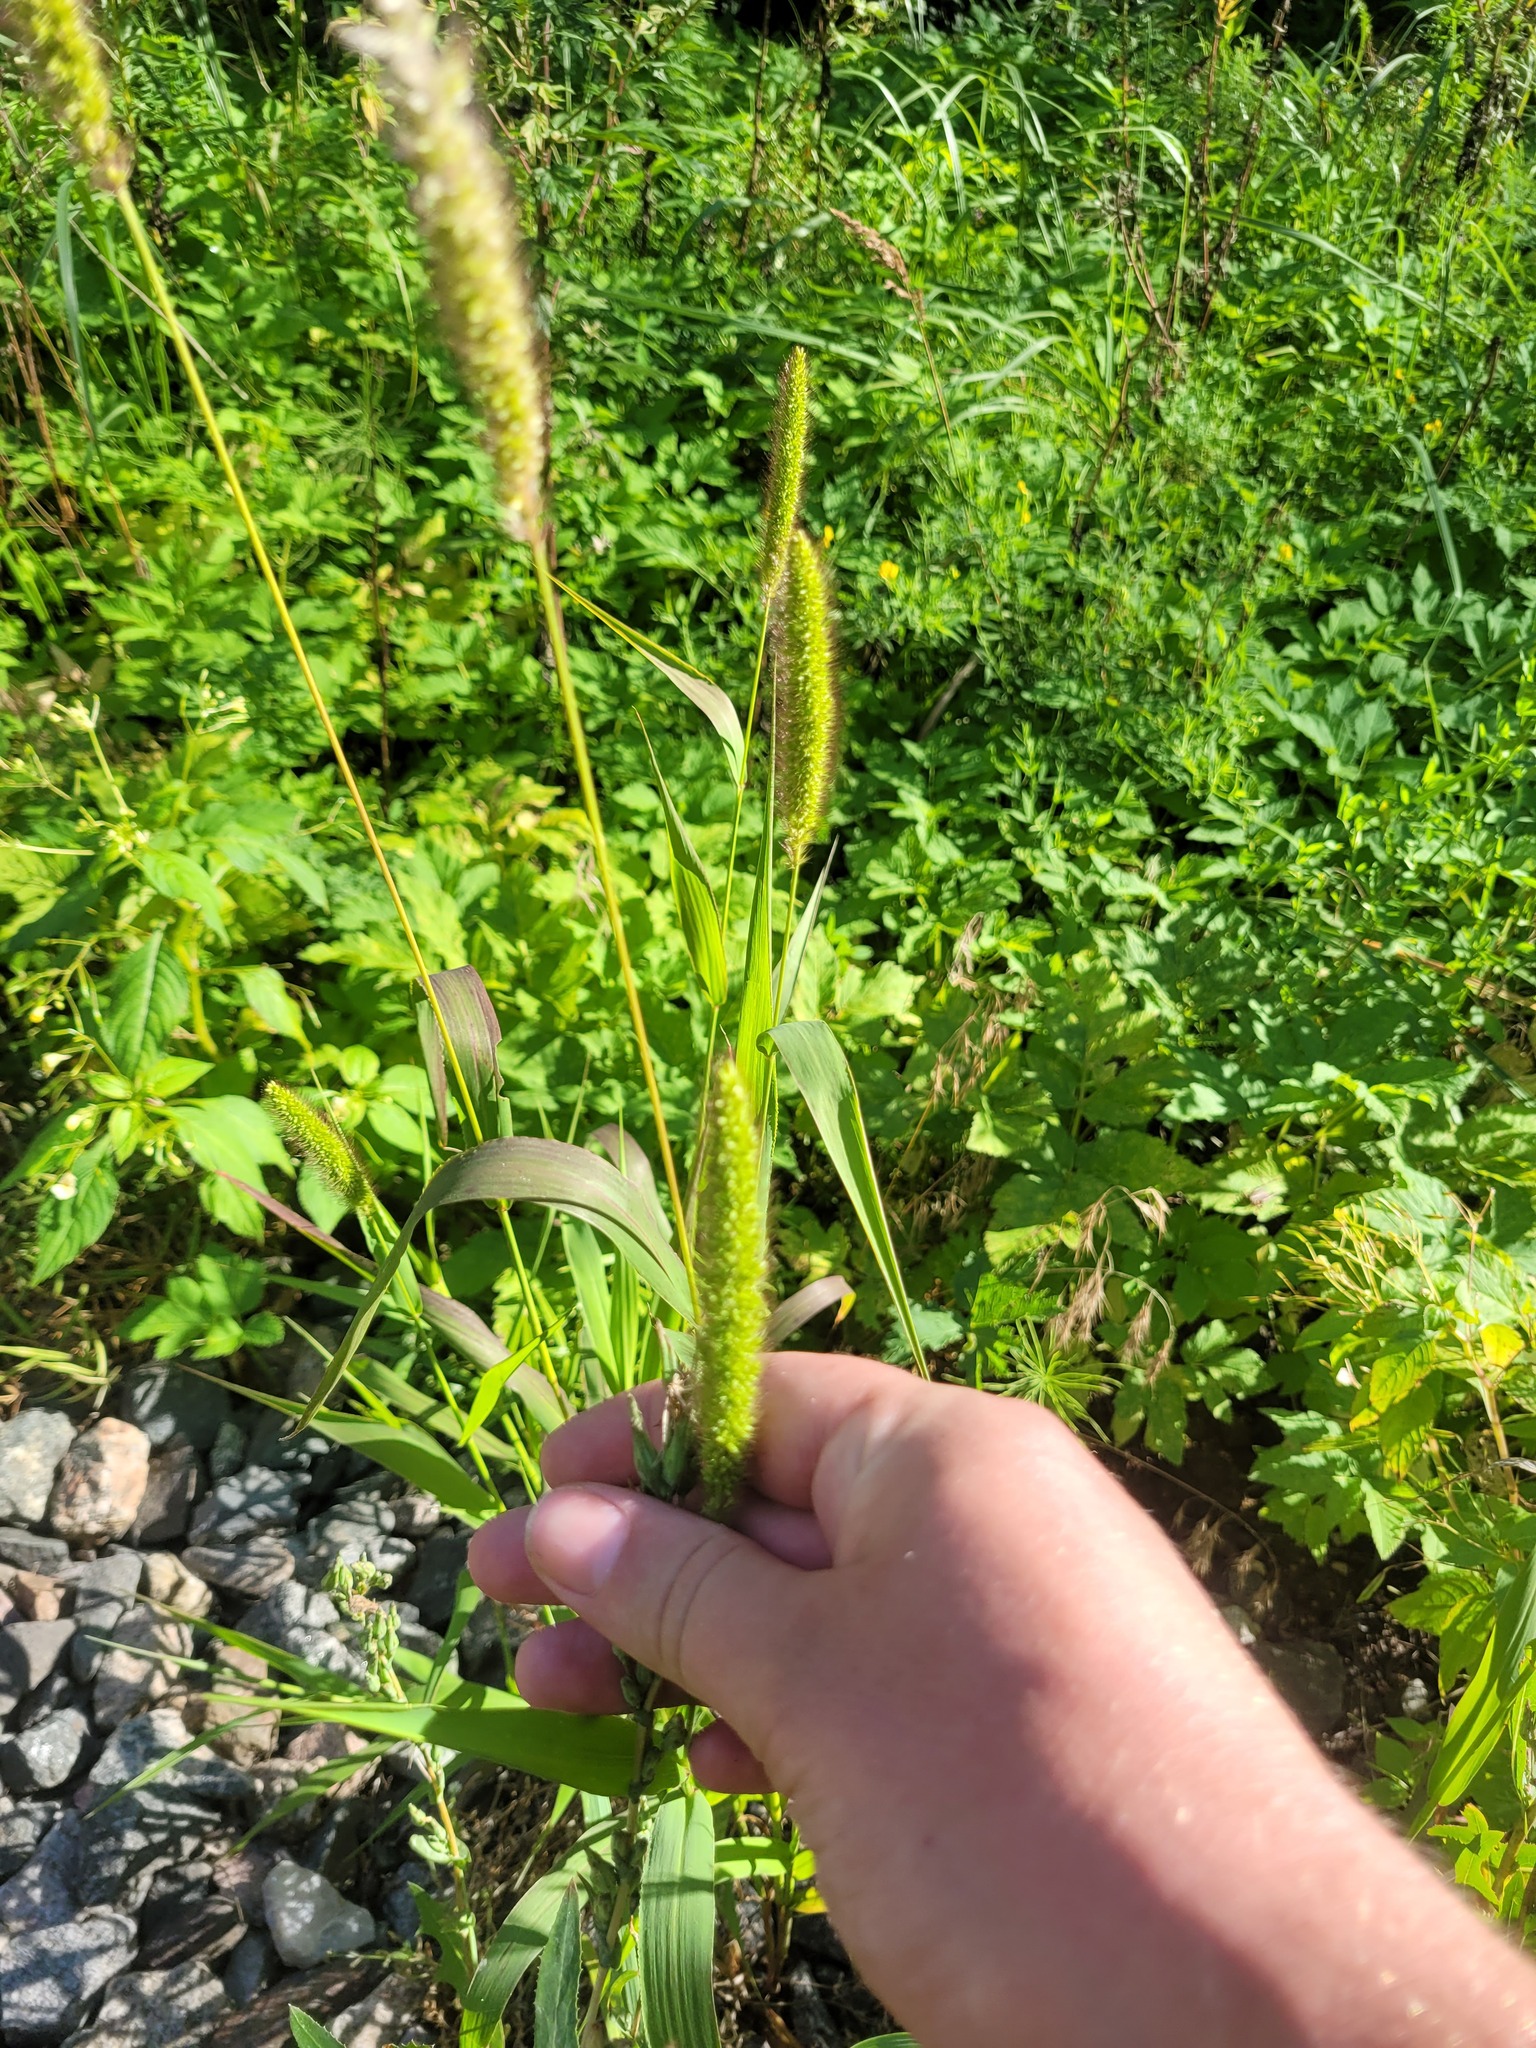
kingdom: Plantae
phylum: Tracheophyta
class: Liliopsida
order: Poales
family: Poaceae
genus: Setaria
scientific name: Setaria viridis
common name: Green bristlegrass
